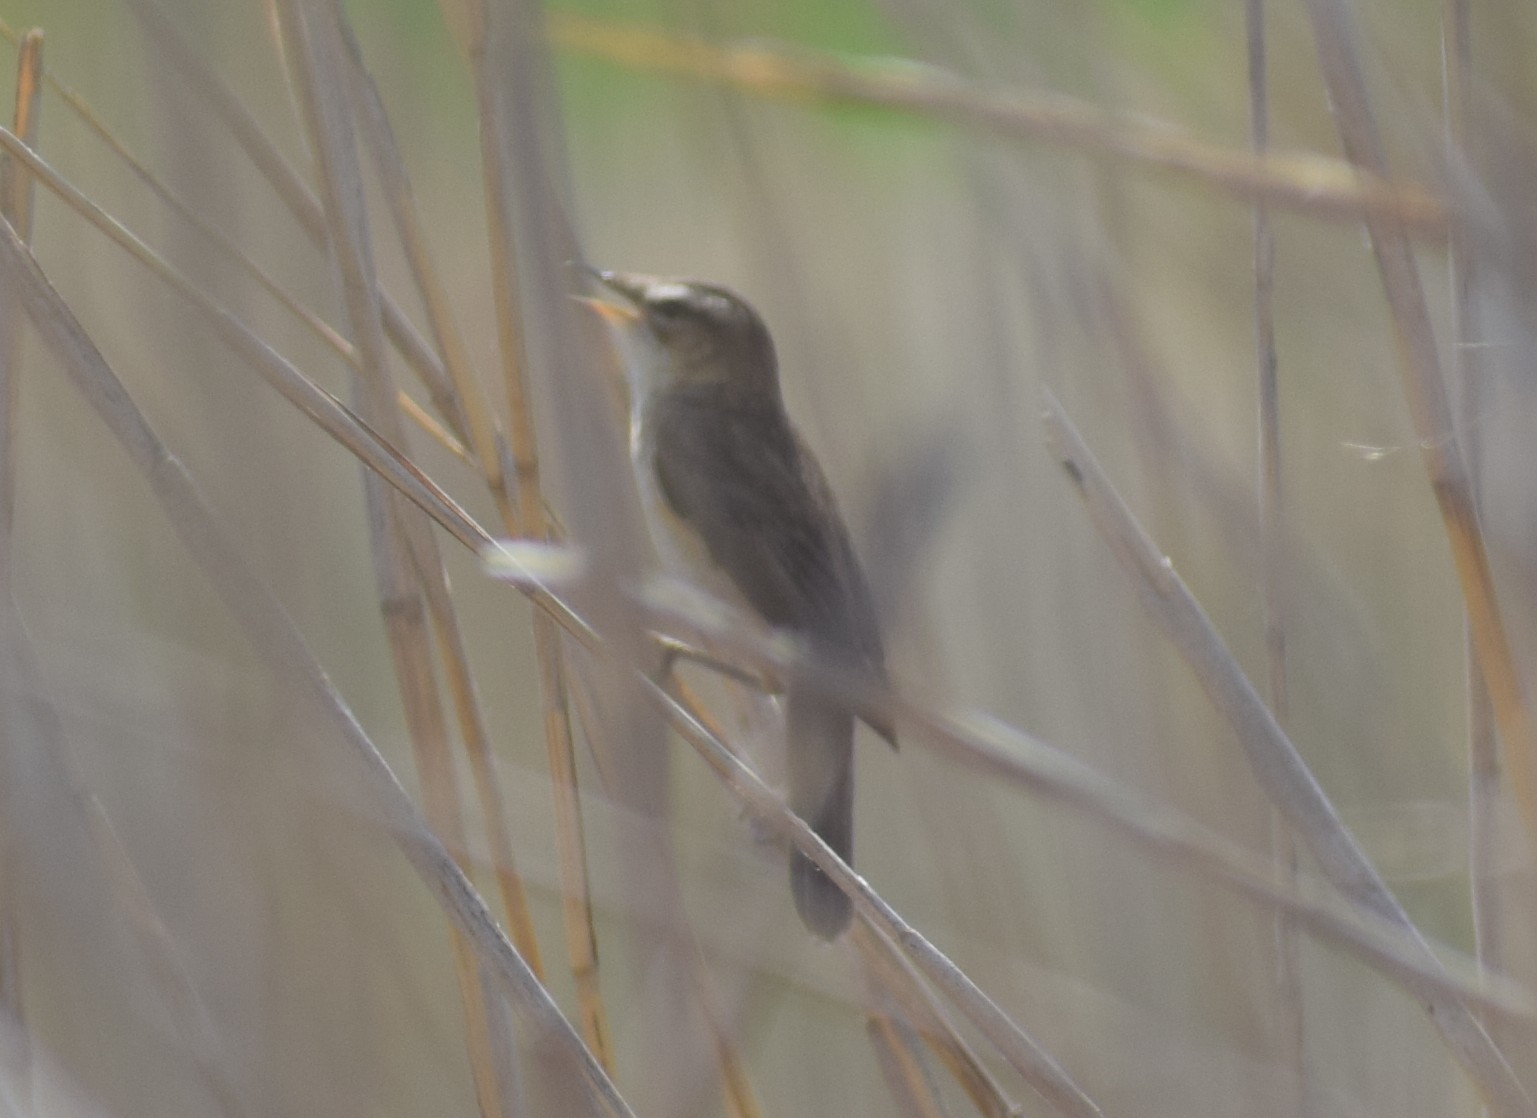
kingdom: Animalia
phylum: Chordata
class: Aves
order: Passeriformes
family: Acrocephalidae
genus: Acrocephalus
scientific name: Acrocephalus schoenobaenus
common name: Sedge warbler
